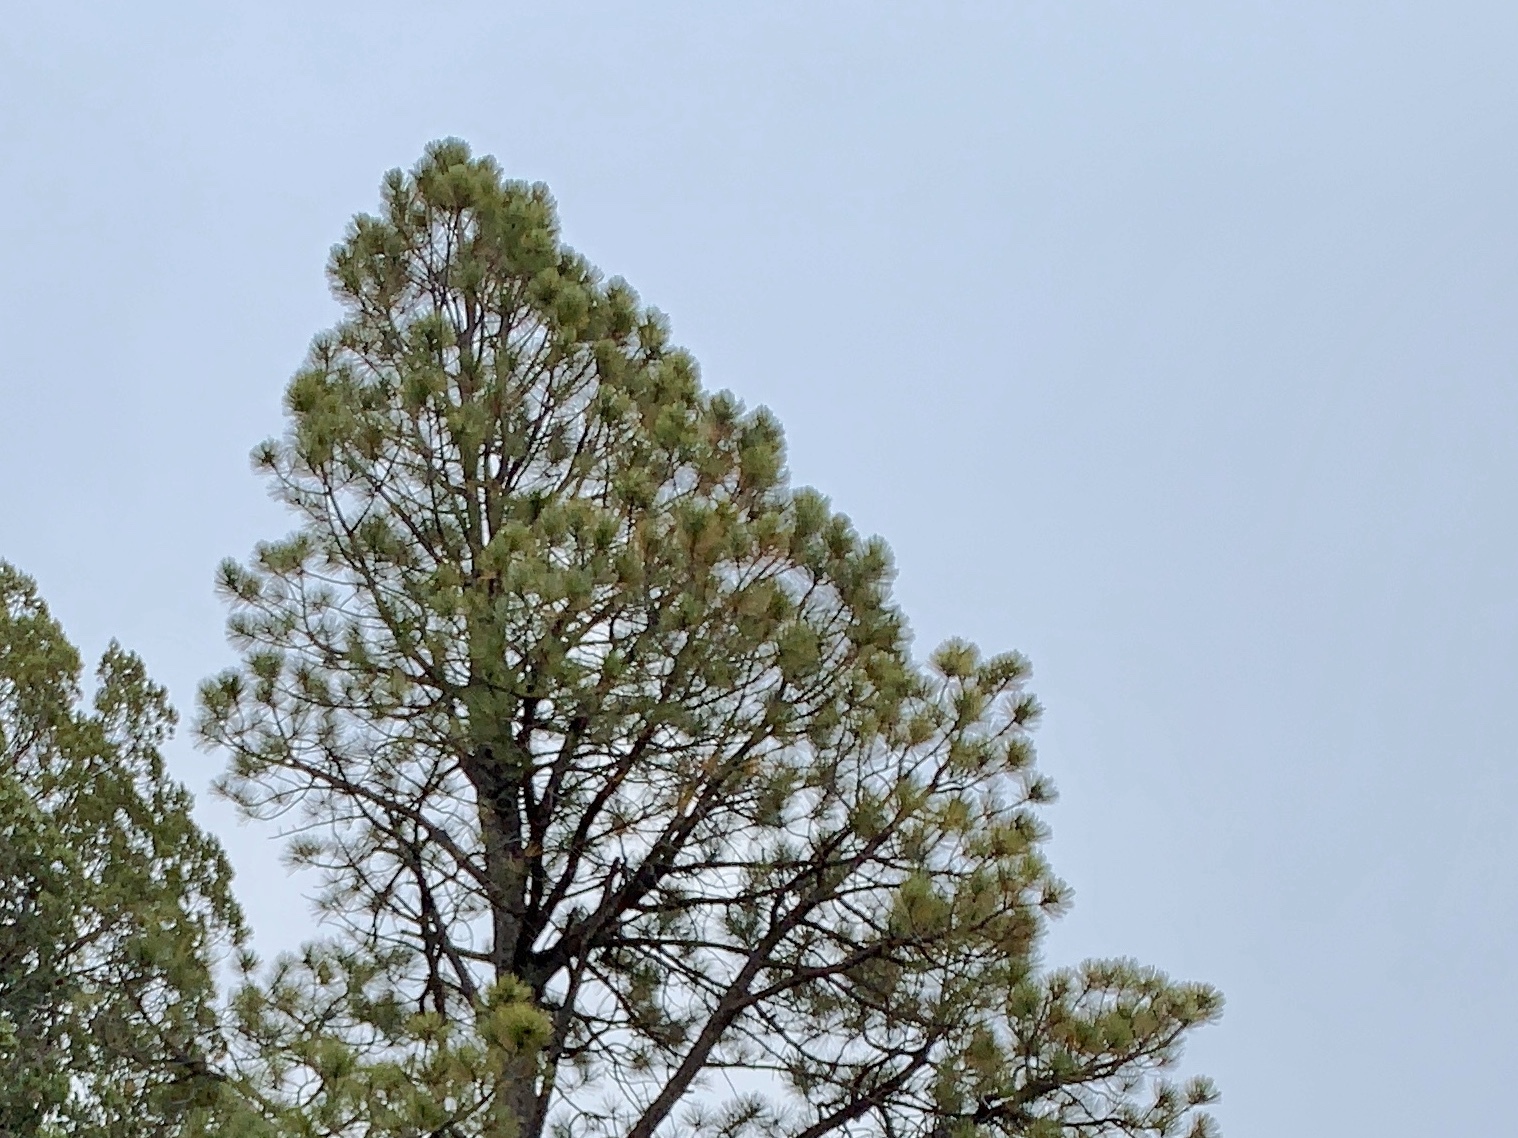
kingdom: Plantae
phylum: Tracheophyta
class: Pinopsida
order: Pinales
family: Pinaceae
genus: Pinus
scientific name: Pinus ponderosa
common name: Western yellow-pine
